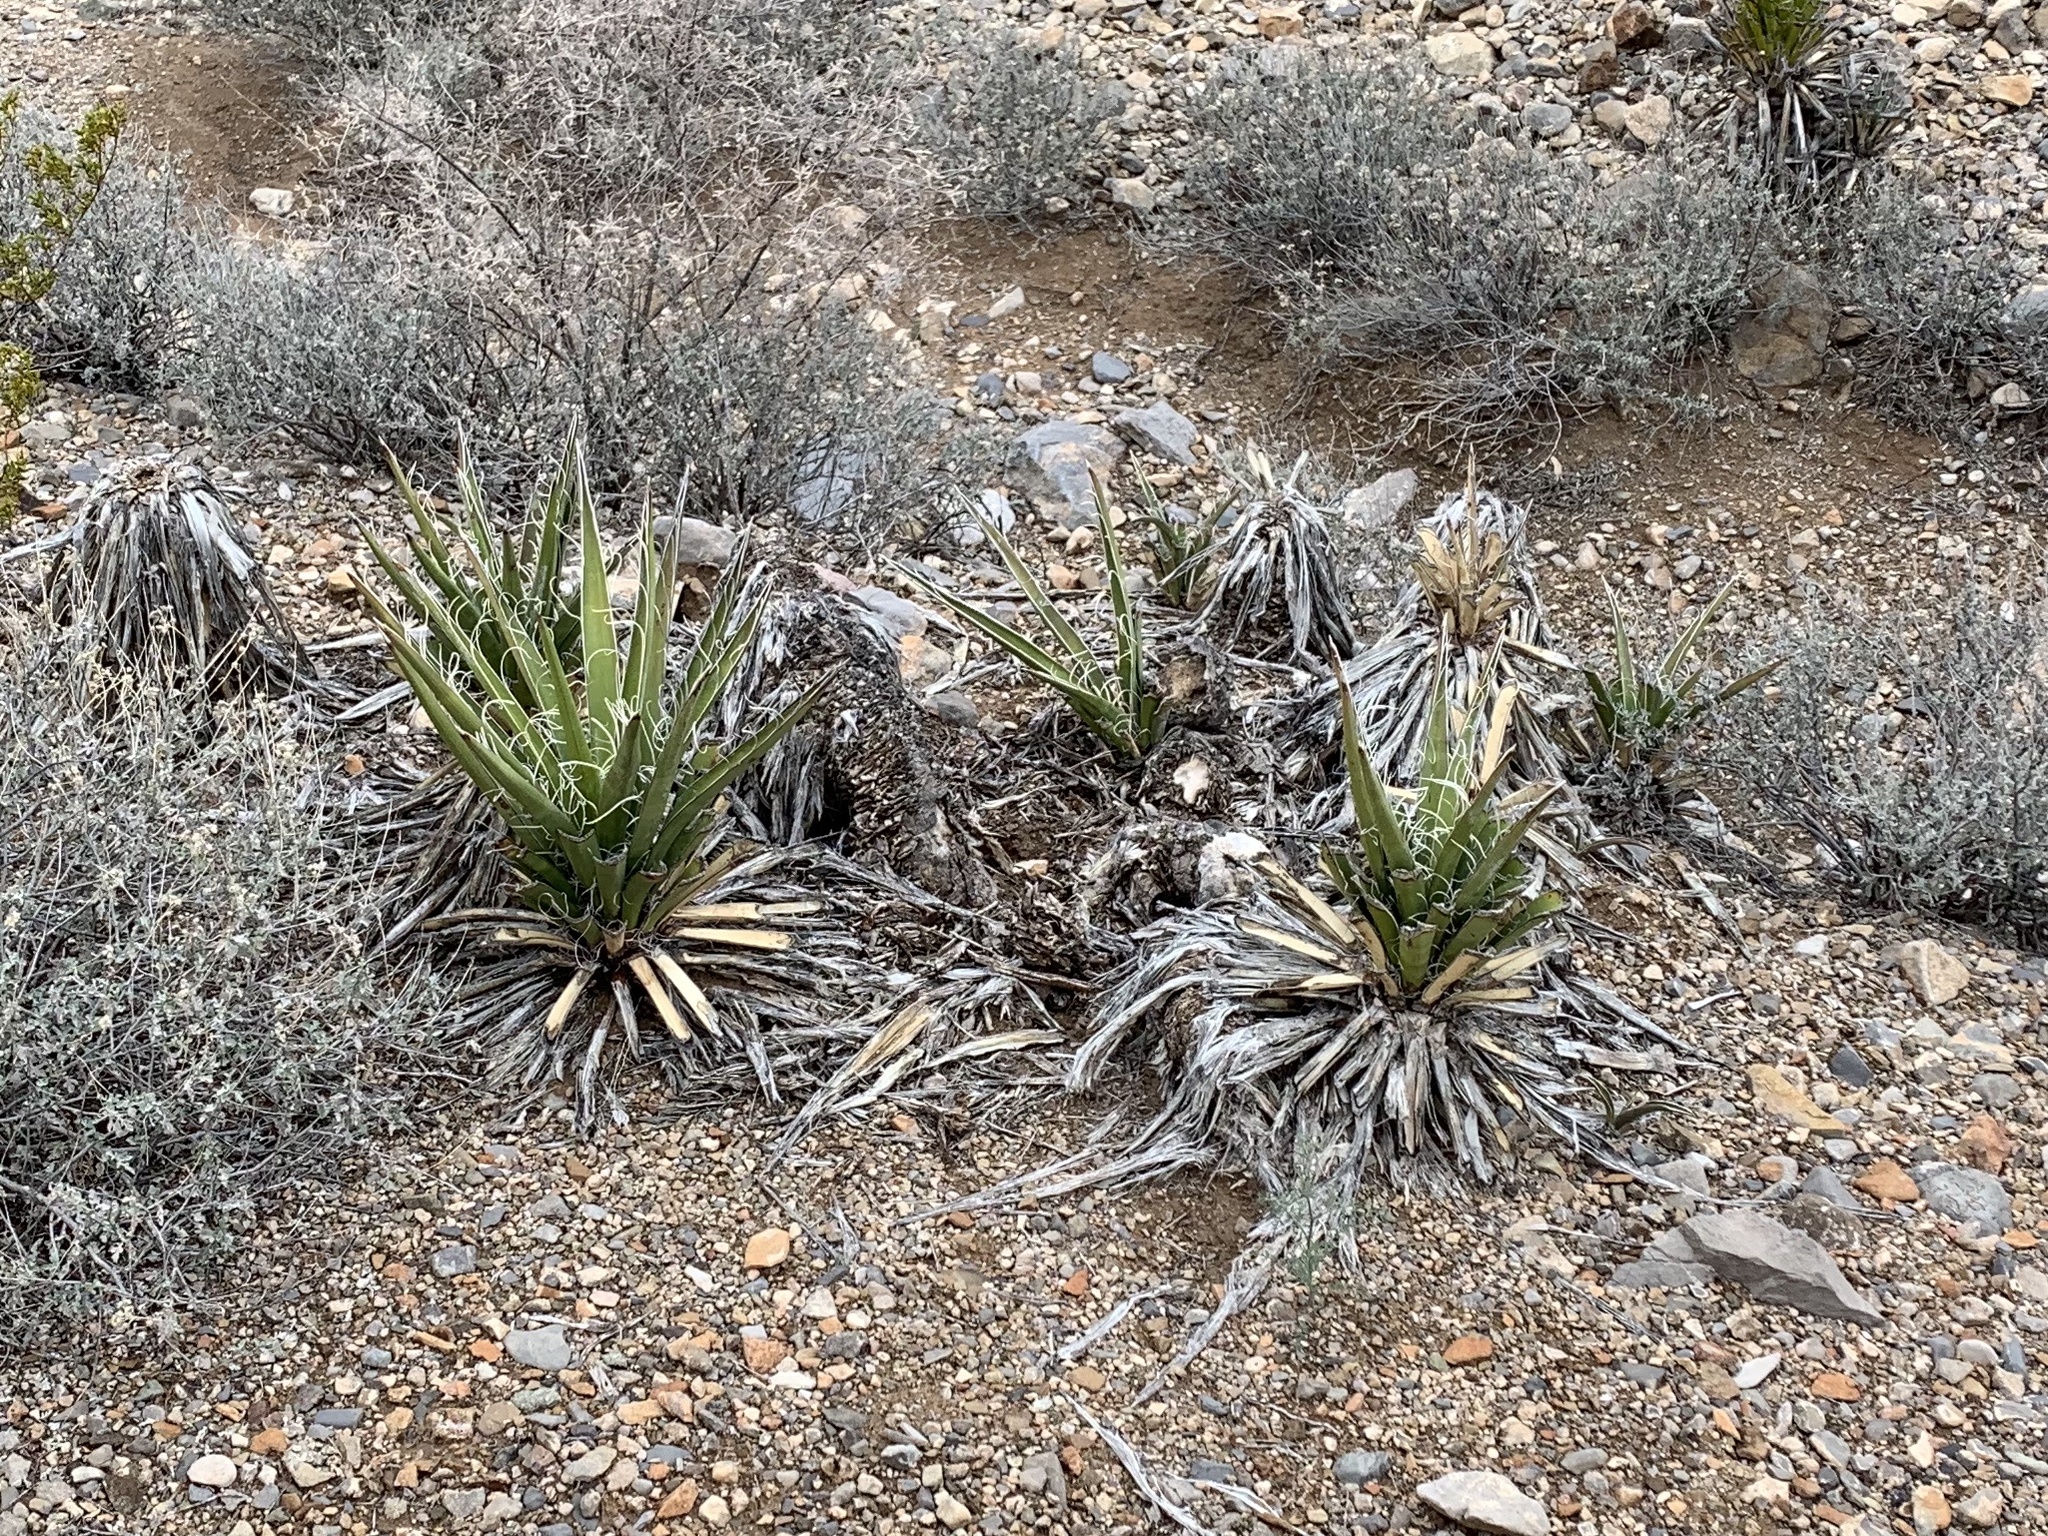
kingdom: Plantae
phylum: Tracheophyta
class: Liliopsida
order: Asparagales
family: Asparagaceae
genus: Yucca
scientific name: Yucca baccata
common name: Banana yucca
